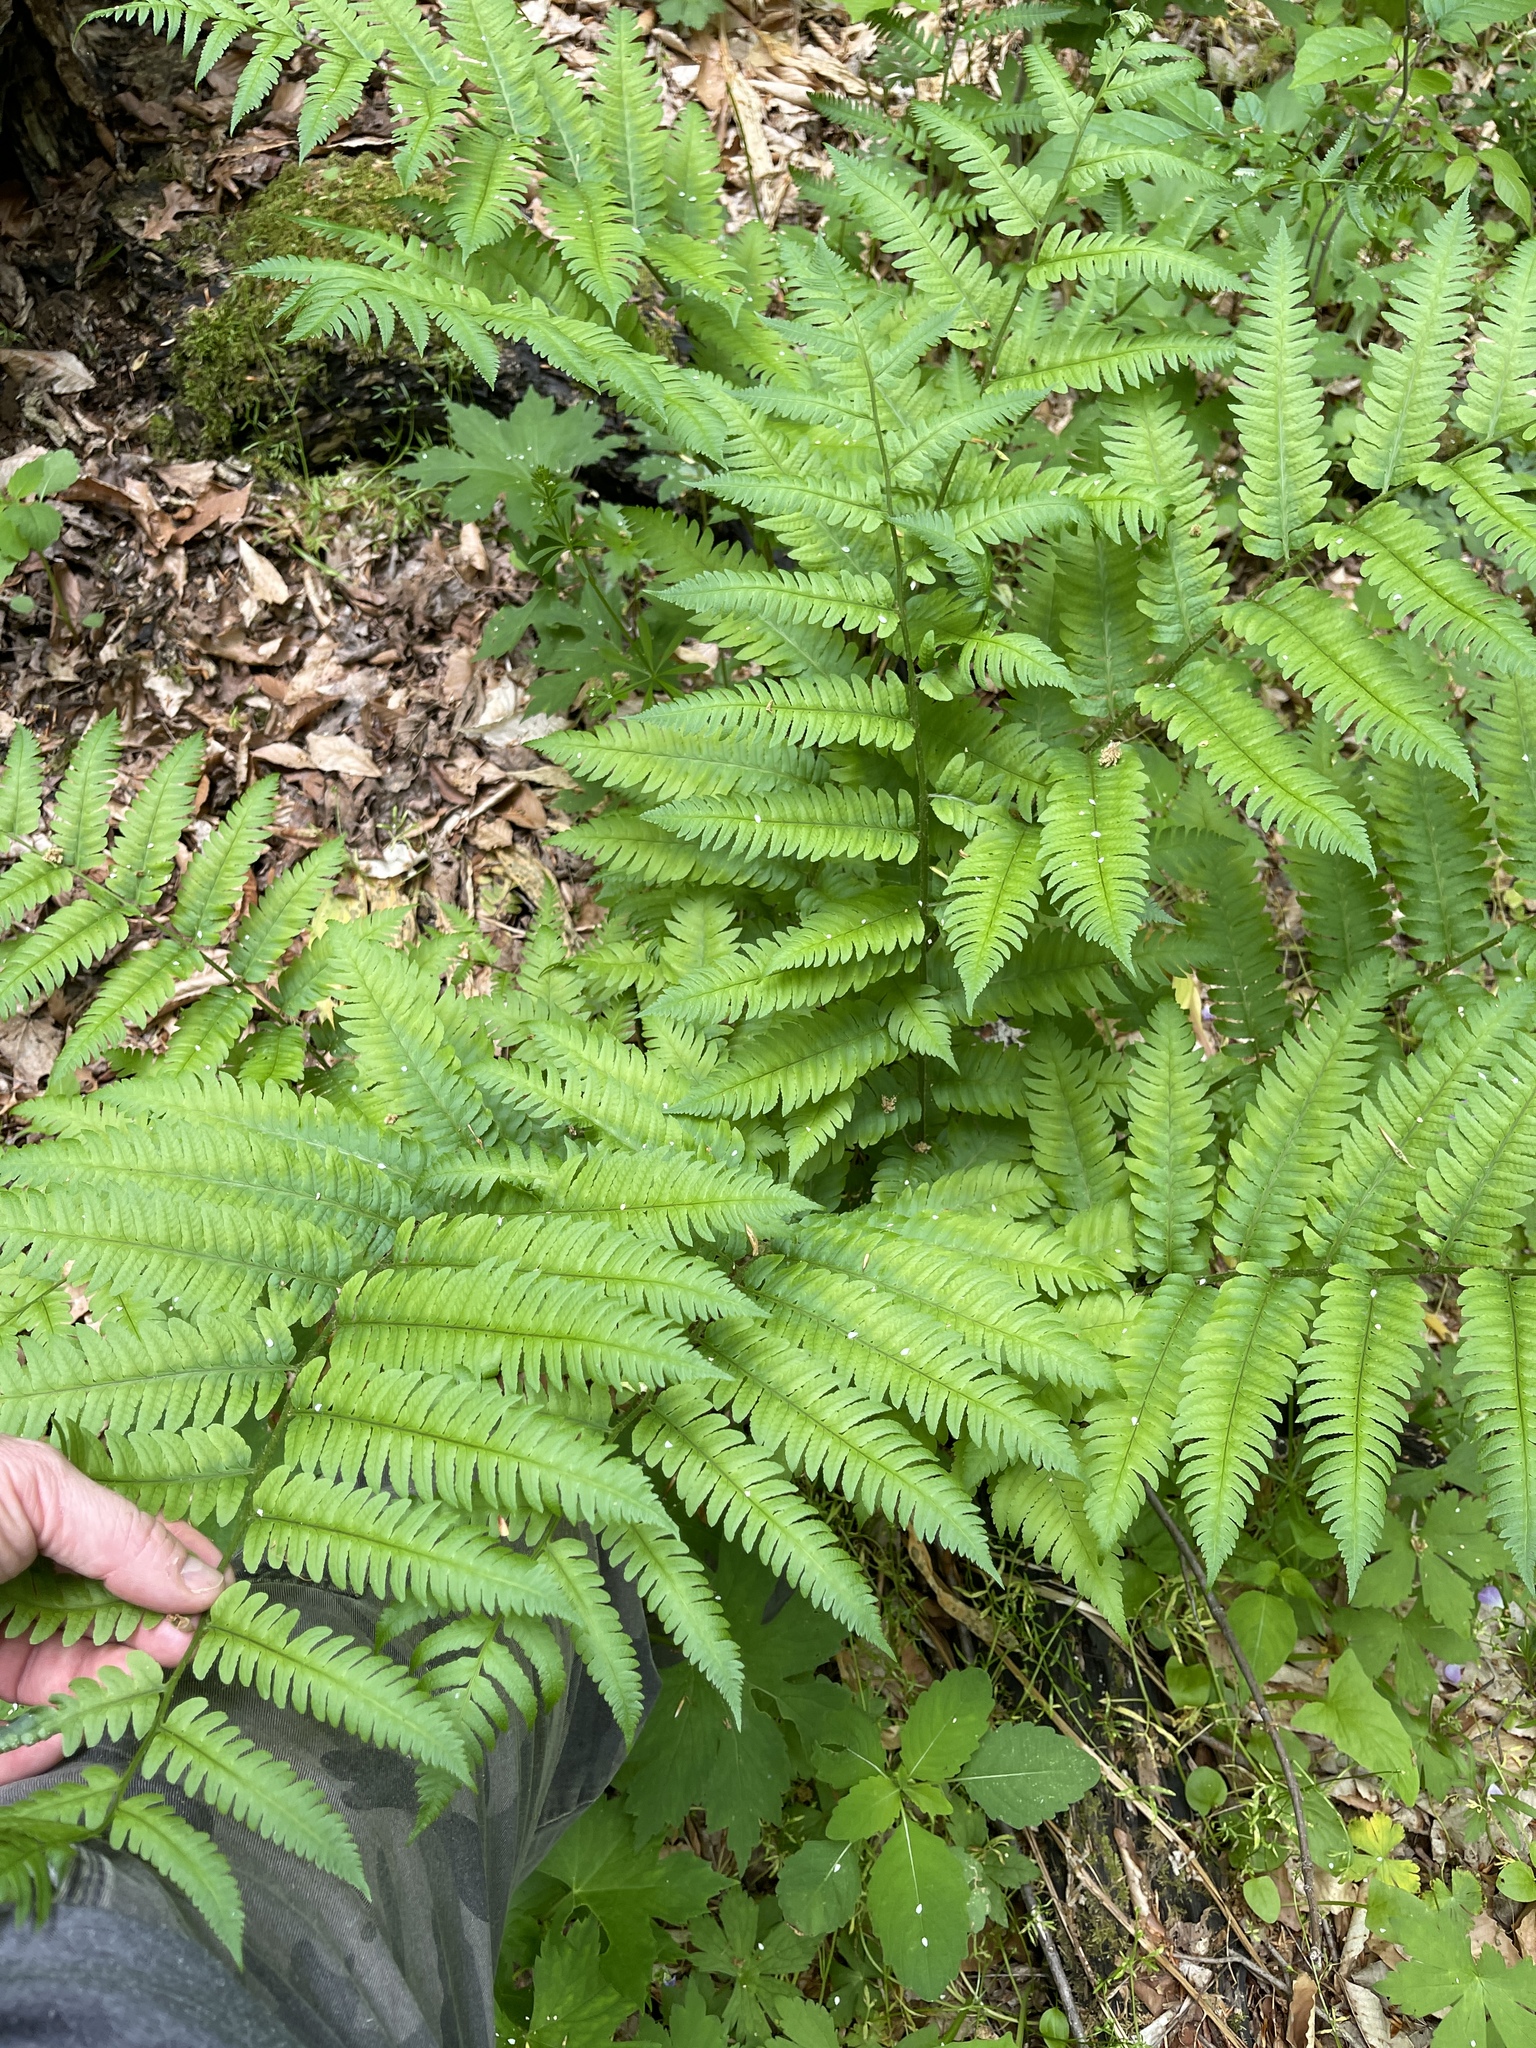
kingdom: Plantae
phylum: Tracheophyta
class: Polypodiopsida
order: Polypodiales
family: Dryopteridaceae
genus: Dryopteris
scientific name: Dryopteris goldieana
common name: Goldie's fern
